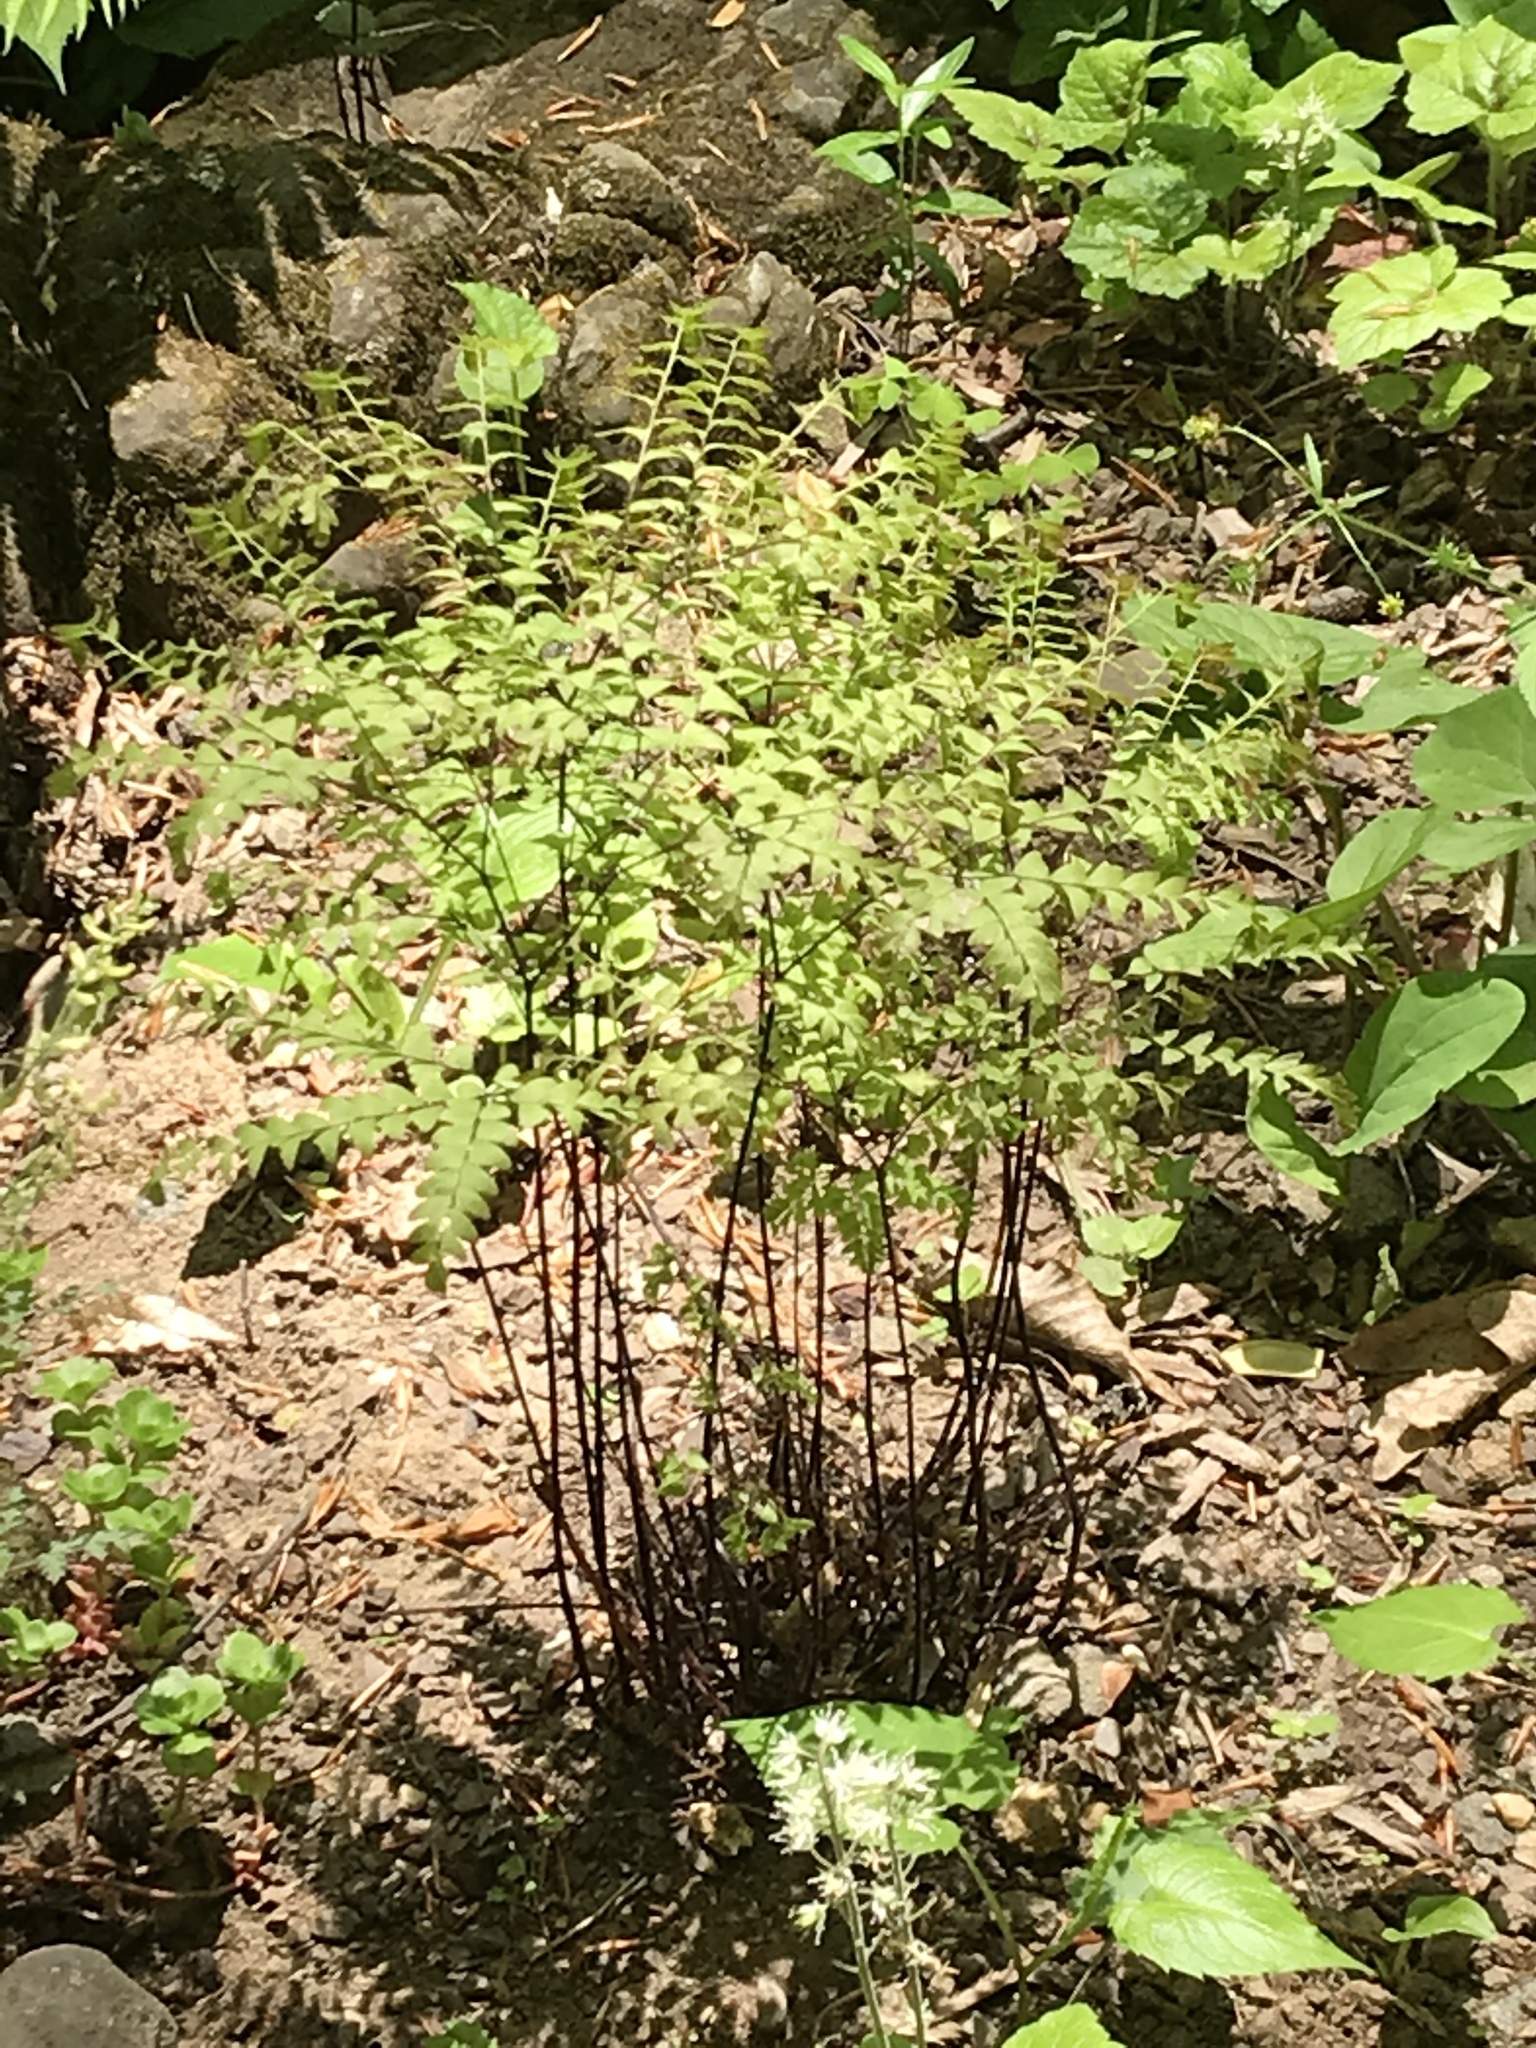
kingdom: Plantae
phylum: Tracheophyta
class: Polypodiopsida
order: Polypodiales
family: Pteridaceae
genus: Adiantum
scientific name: Adiantum pedatum
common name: Five-finger fern
